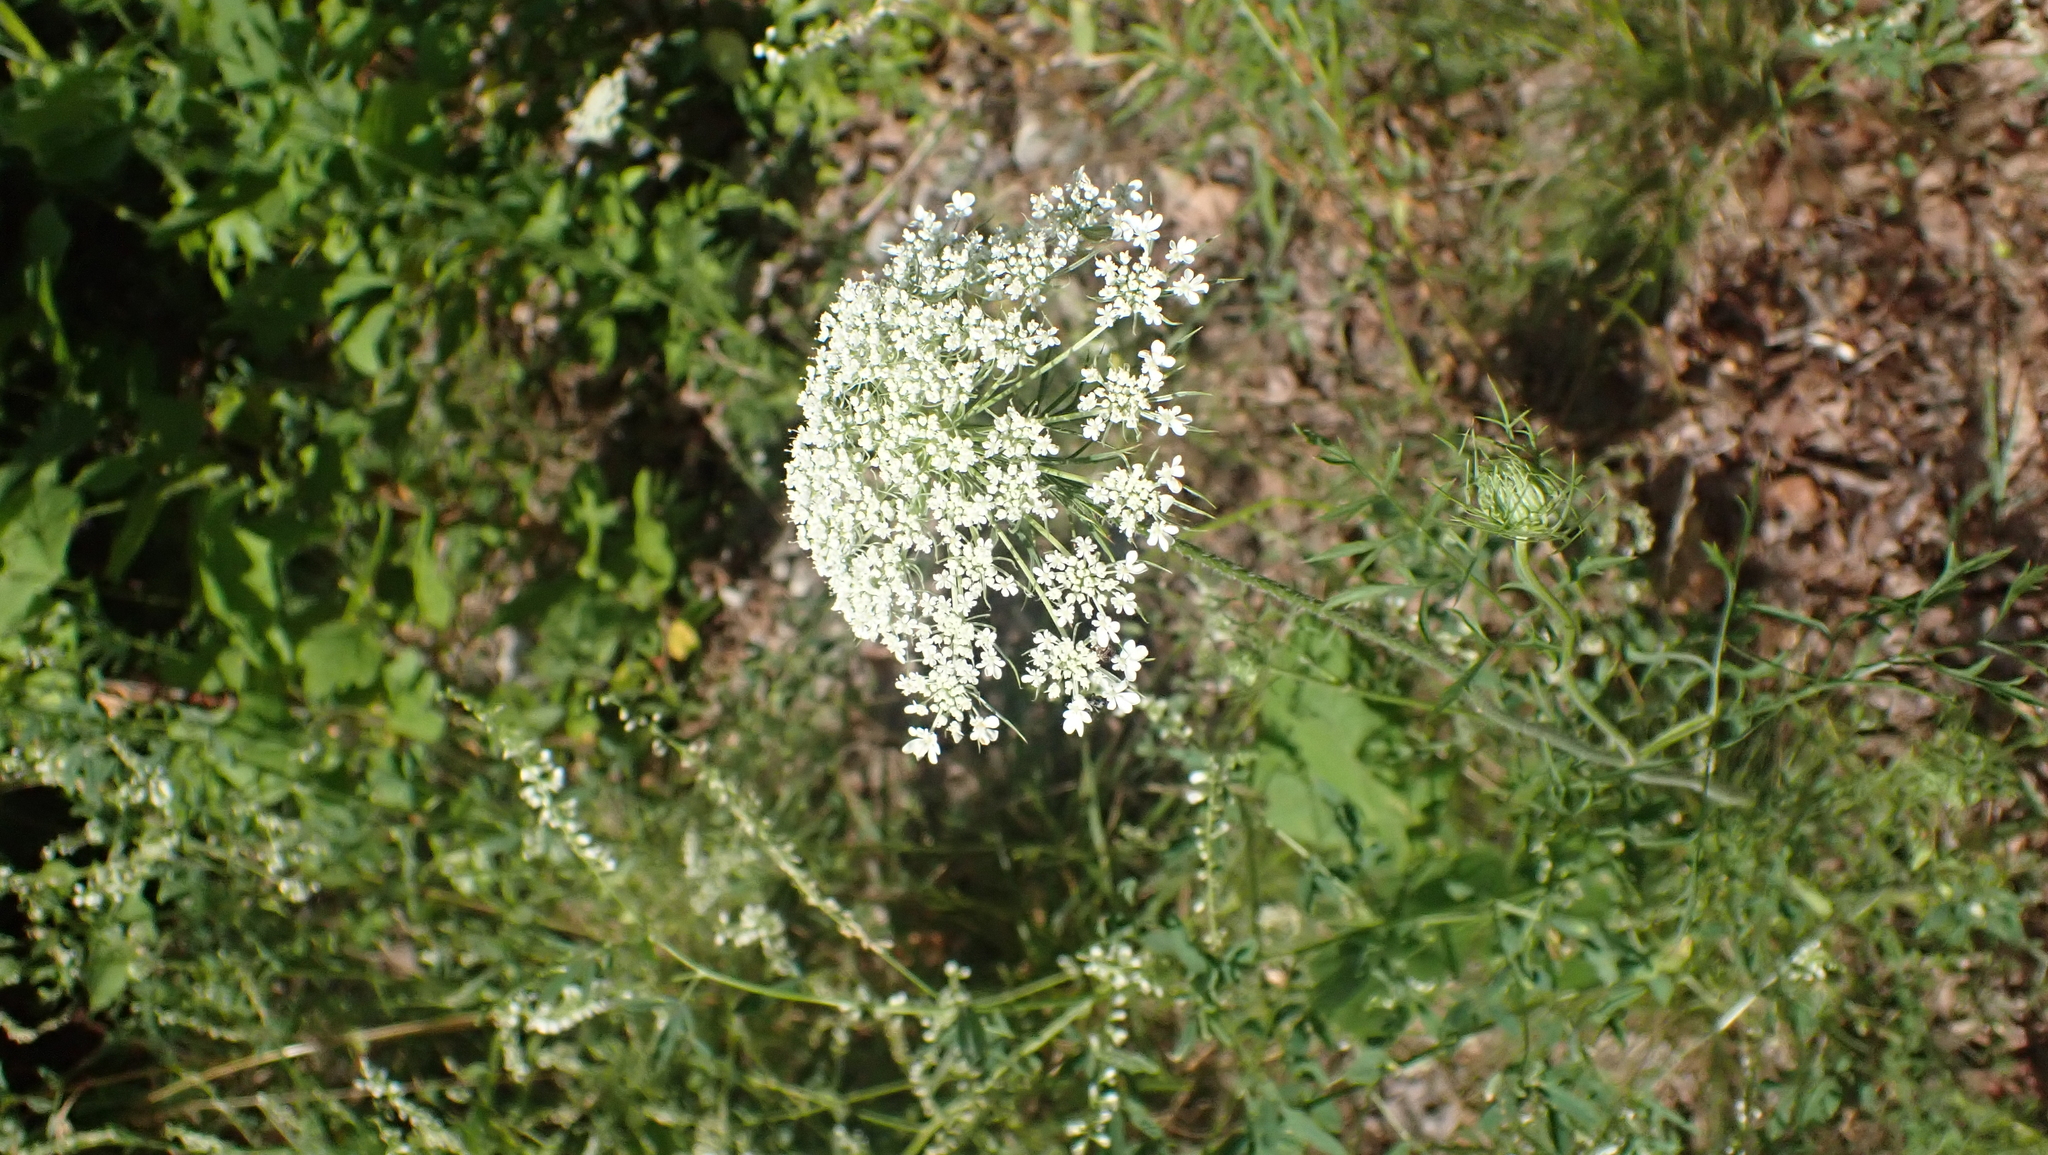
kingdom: Plantae
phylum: Tracheophyta
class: Magnoliopsida
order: Apiales
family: Apiaceae
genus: Daucus
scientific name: Daucus carota
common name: Wild carrot
